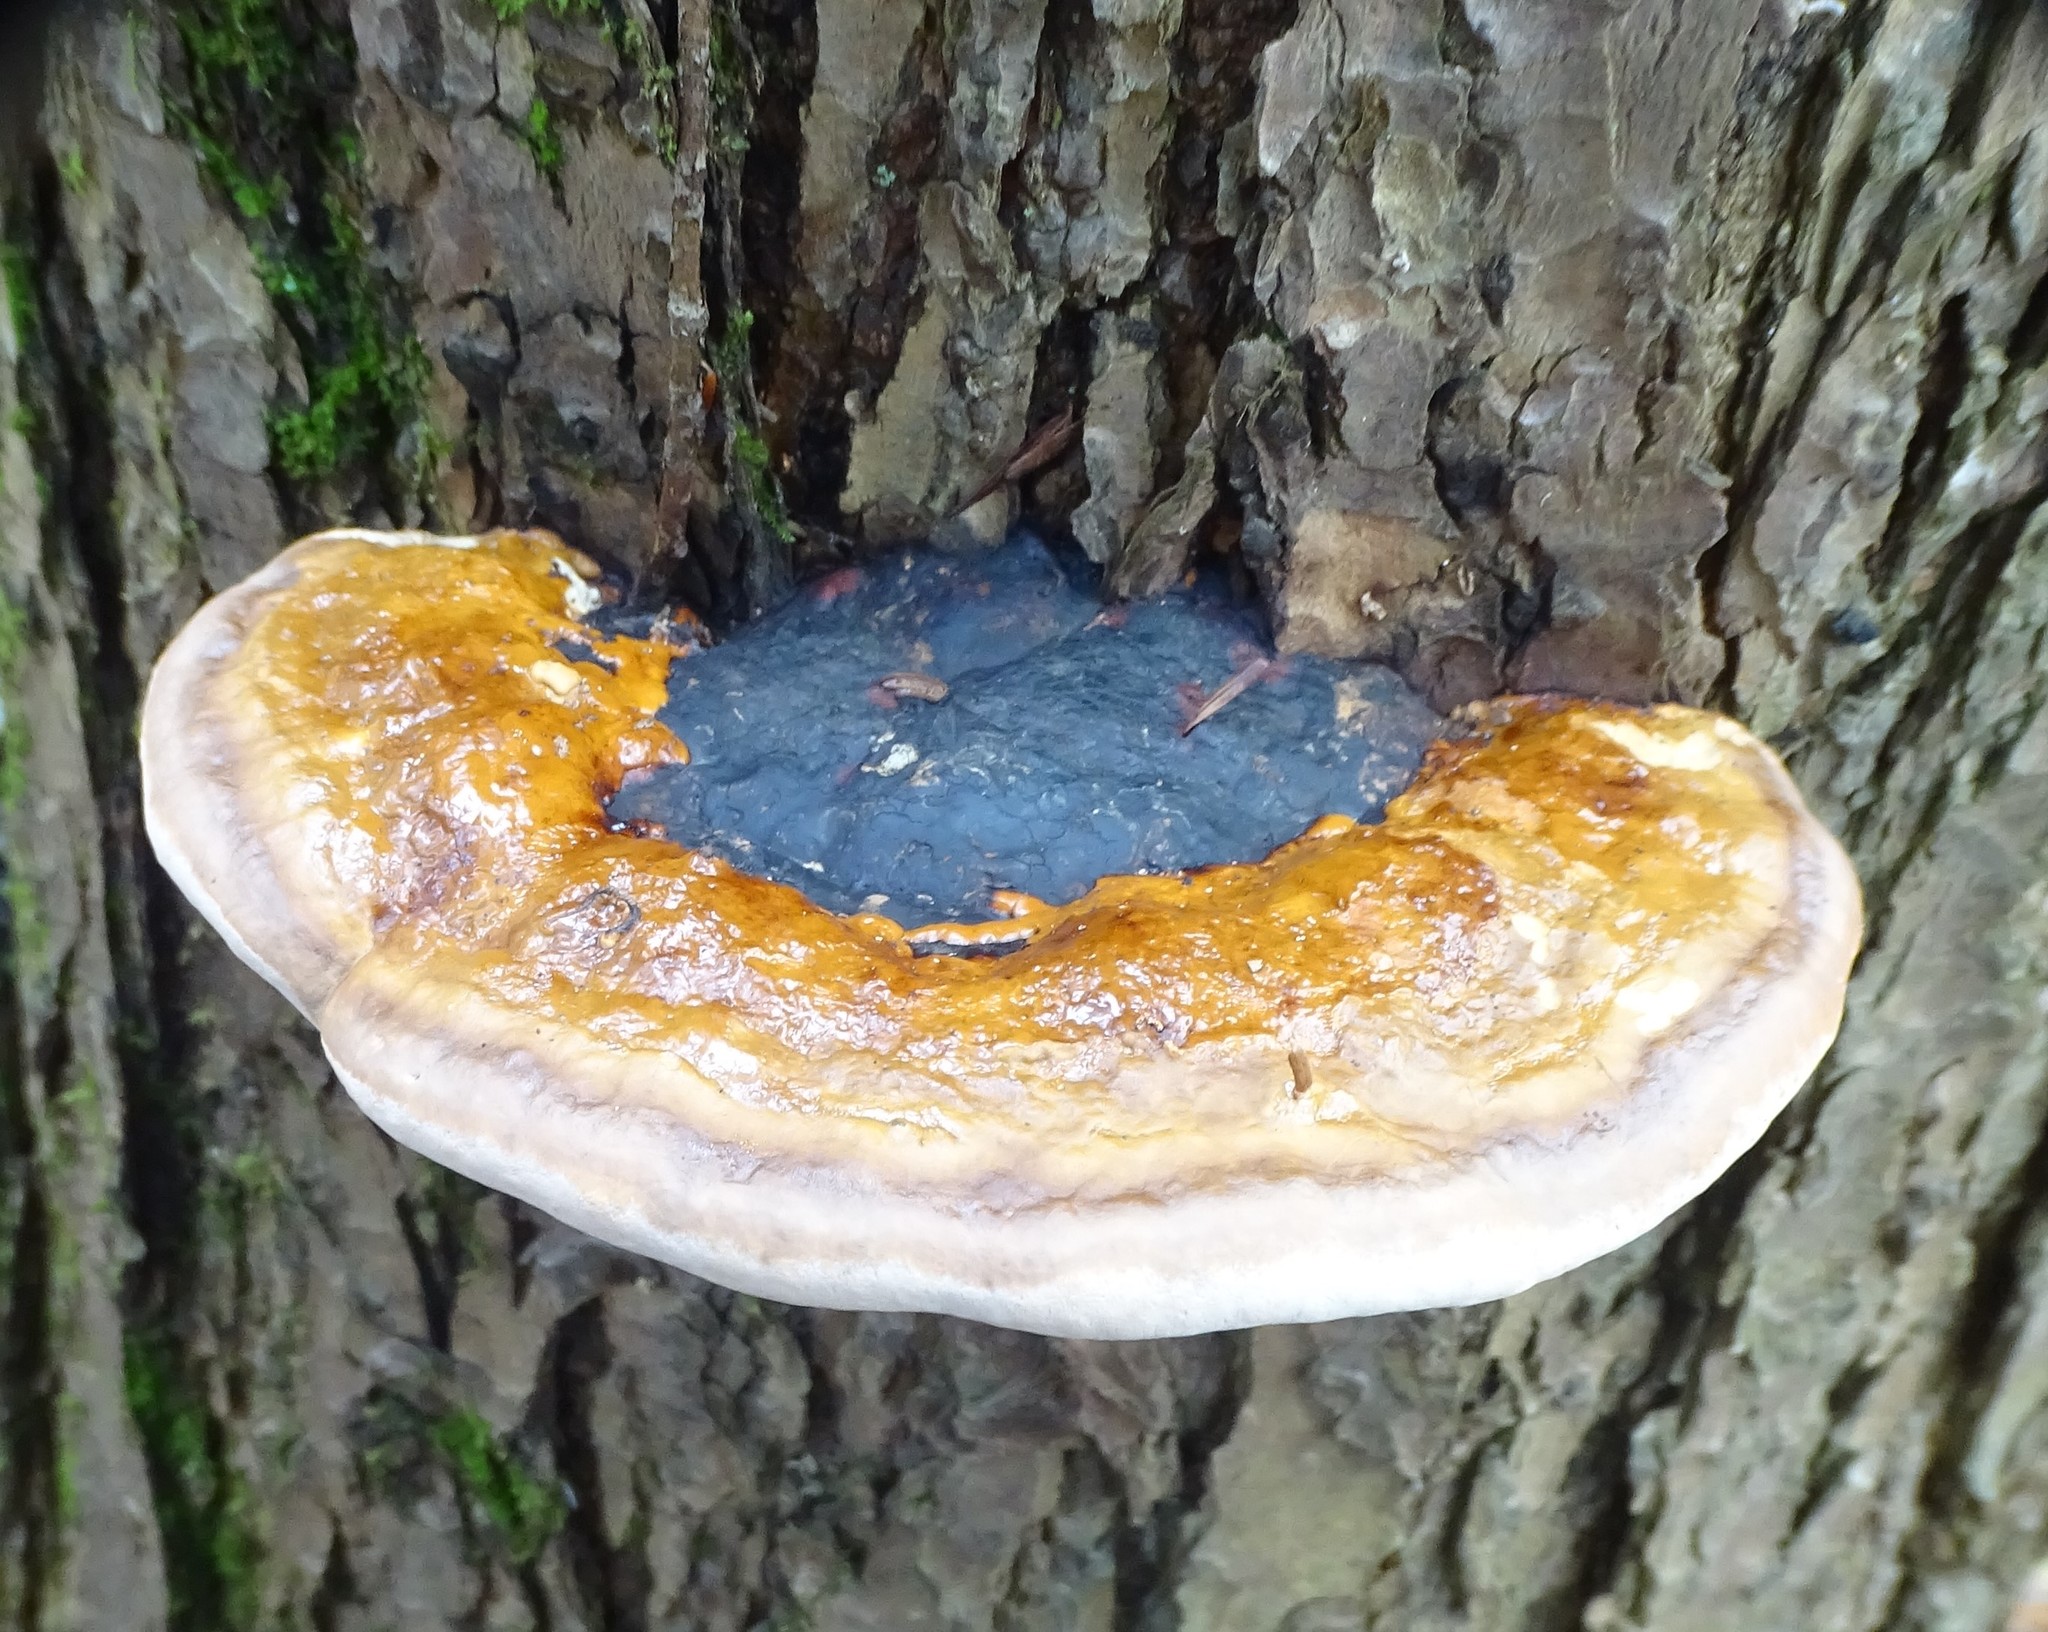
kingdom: Fungi
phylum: Basidiomycota
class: Agaricomycetes
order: Polyporales
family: Fomitopsidaceae
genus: Fomitopsis
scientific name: Fomitopsis mounceae
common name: Northern red belt
